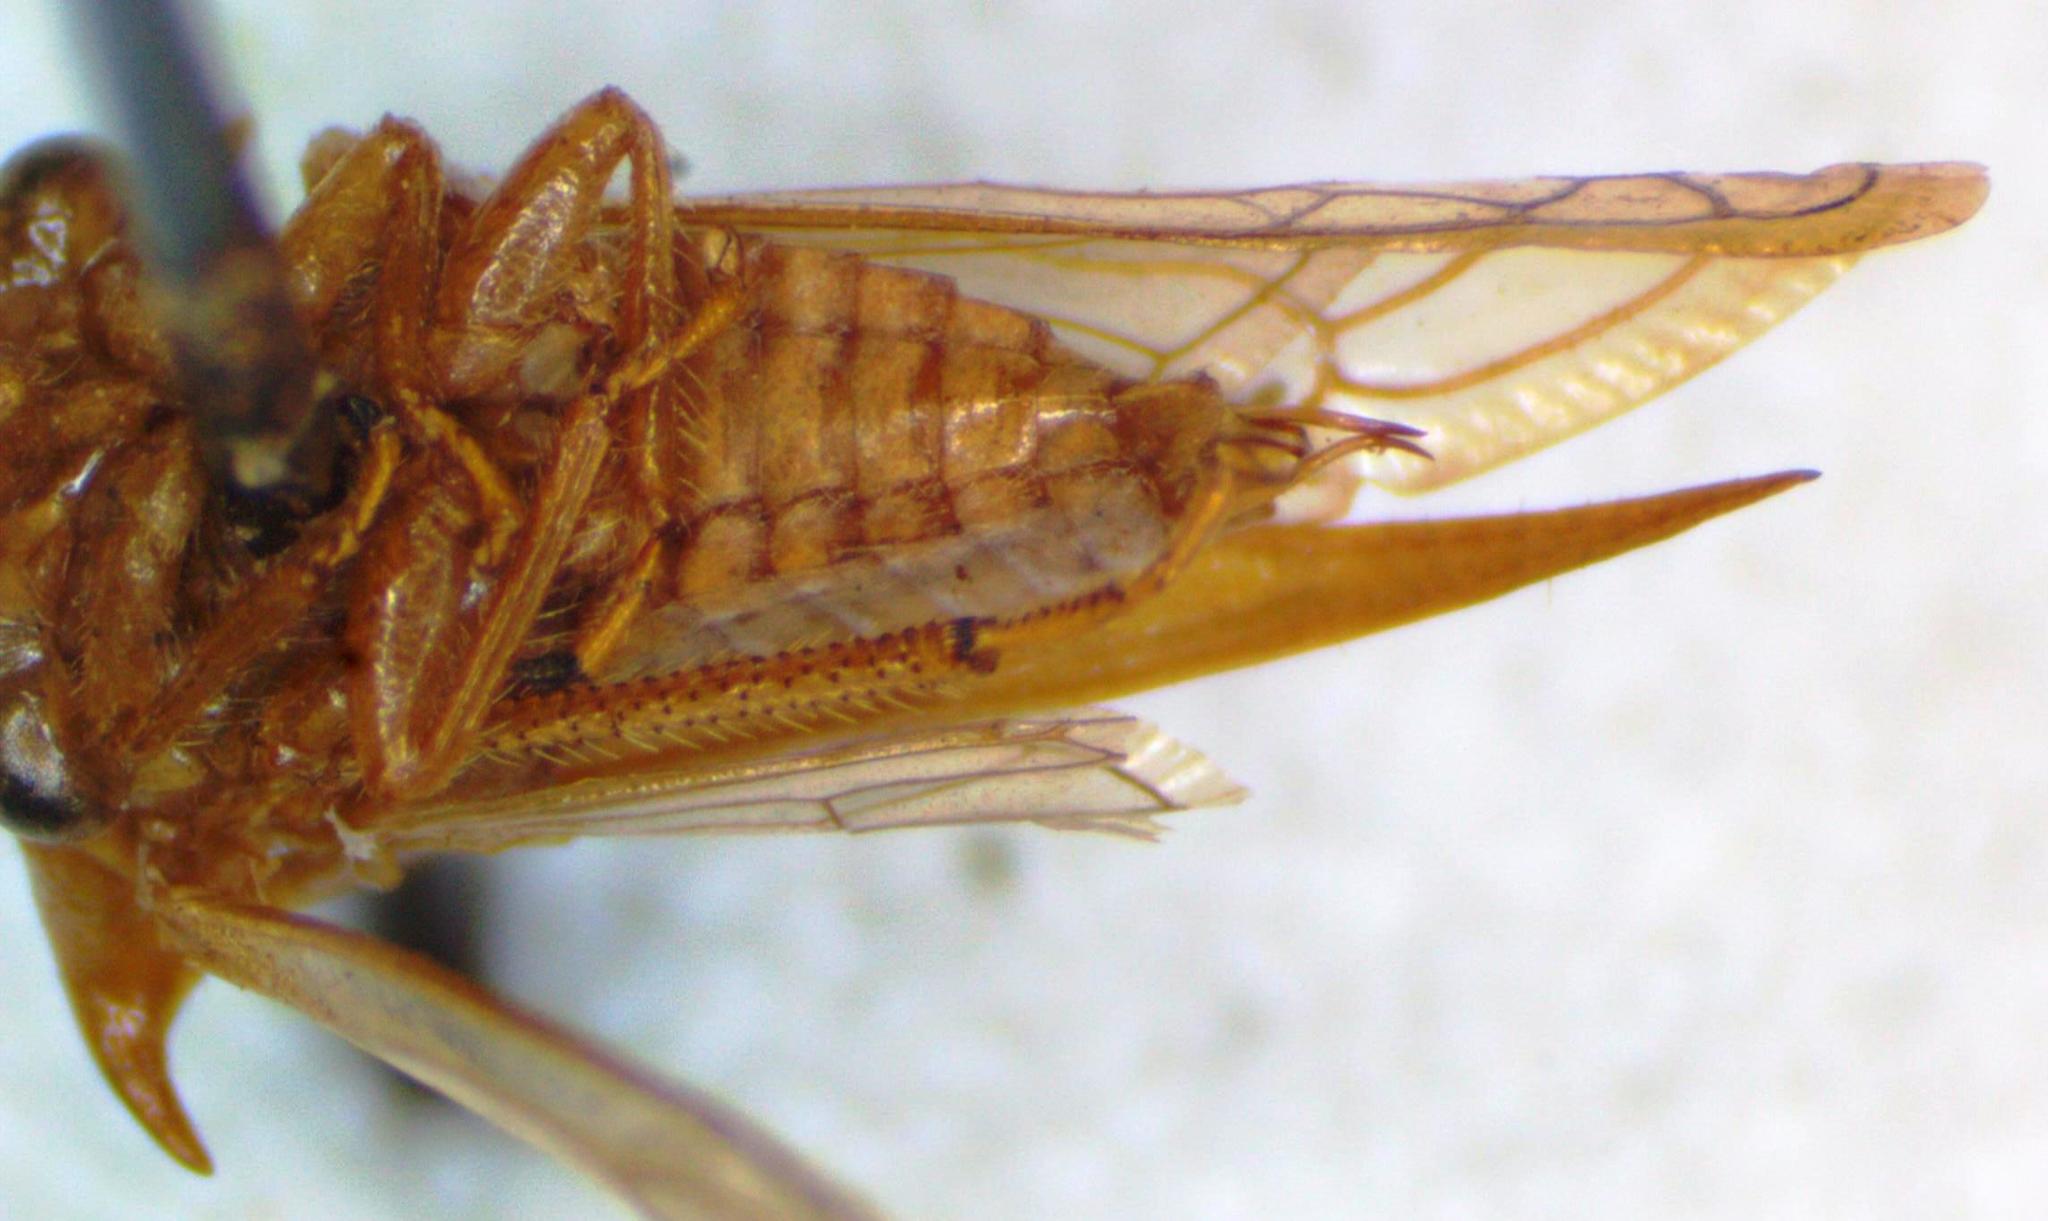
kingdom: Animalia
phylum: Arthropoda
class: Insecta
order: Hemiptera
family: Membracidae
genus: Stictolobus
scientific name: Stictolobus minor
